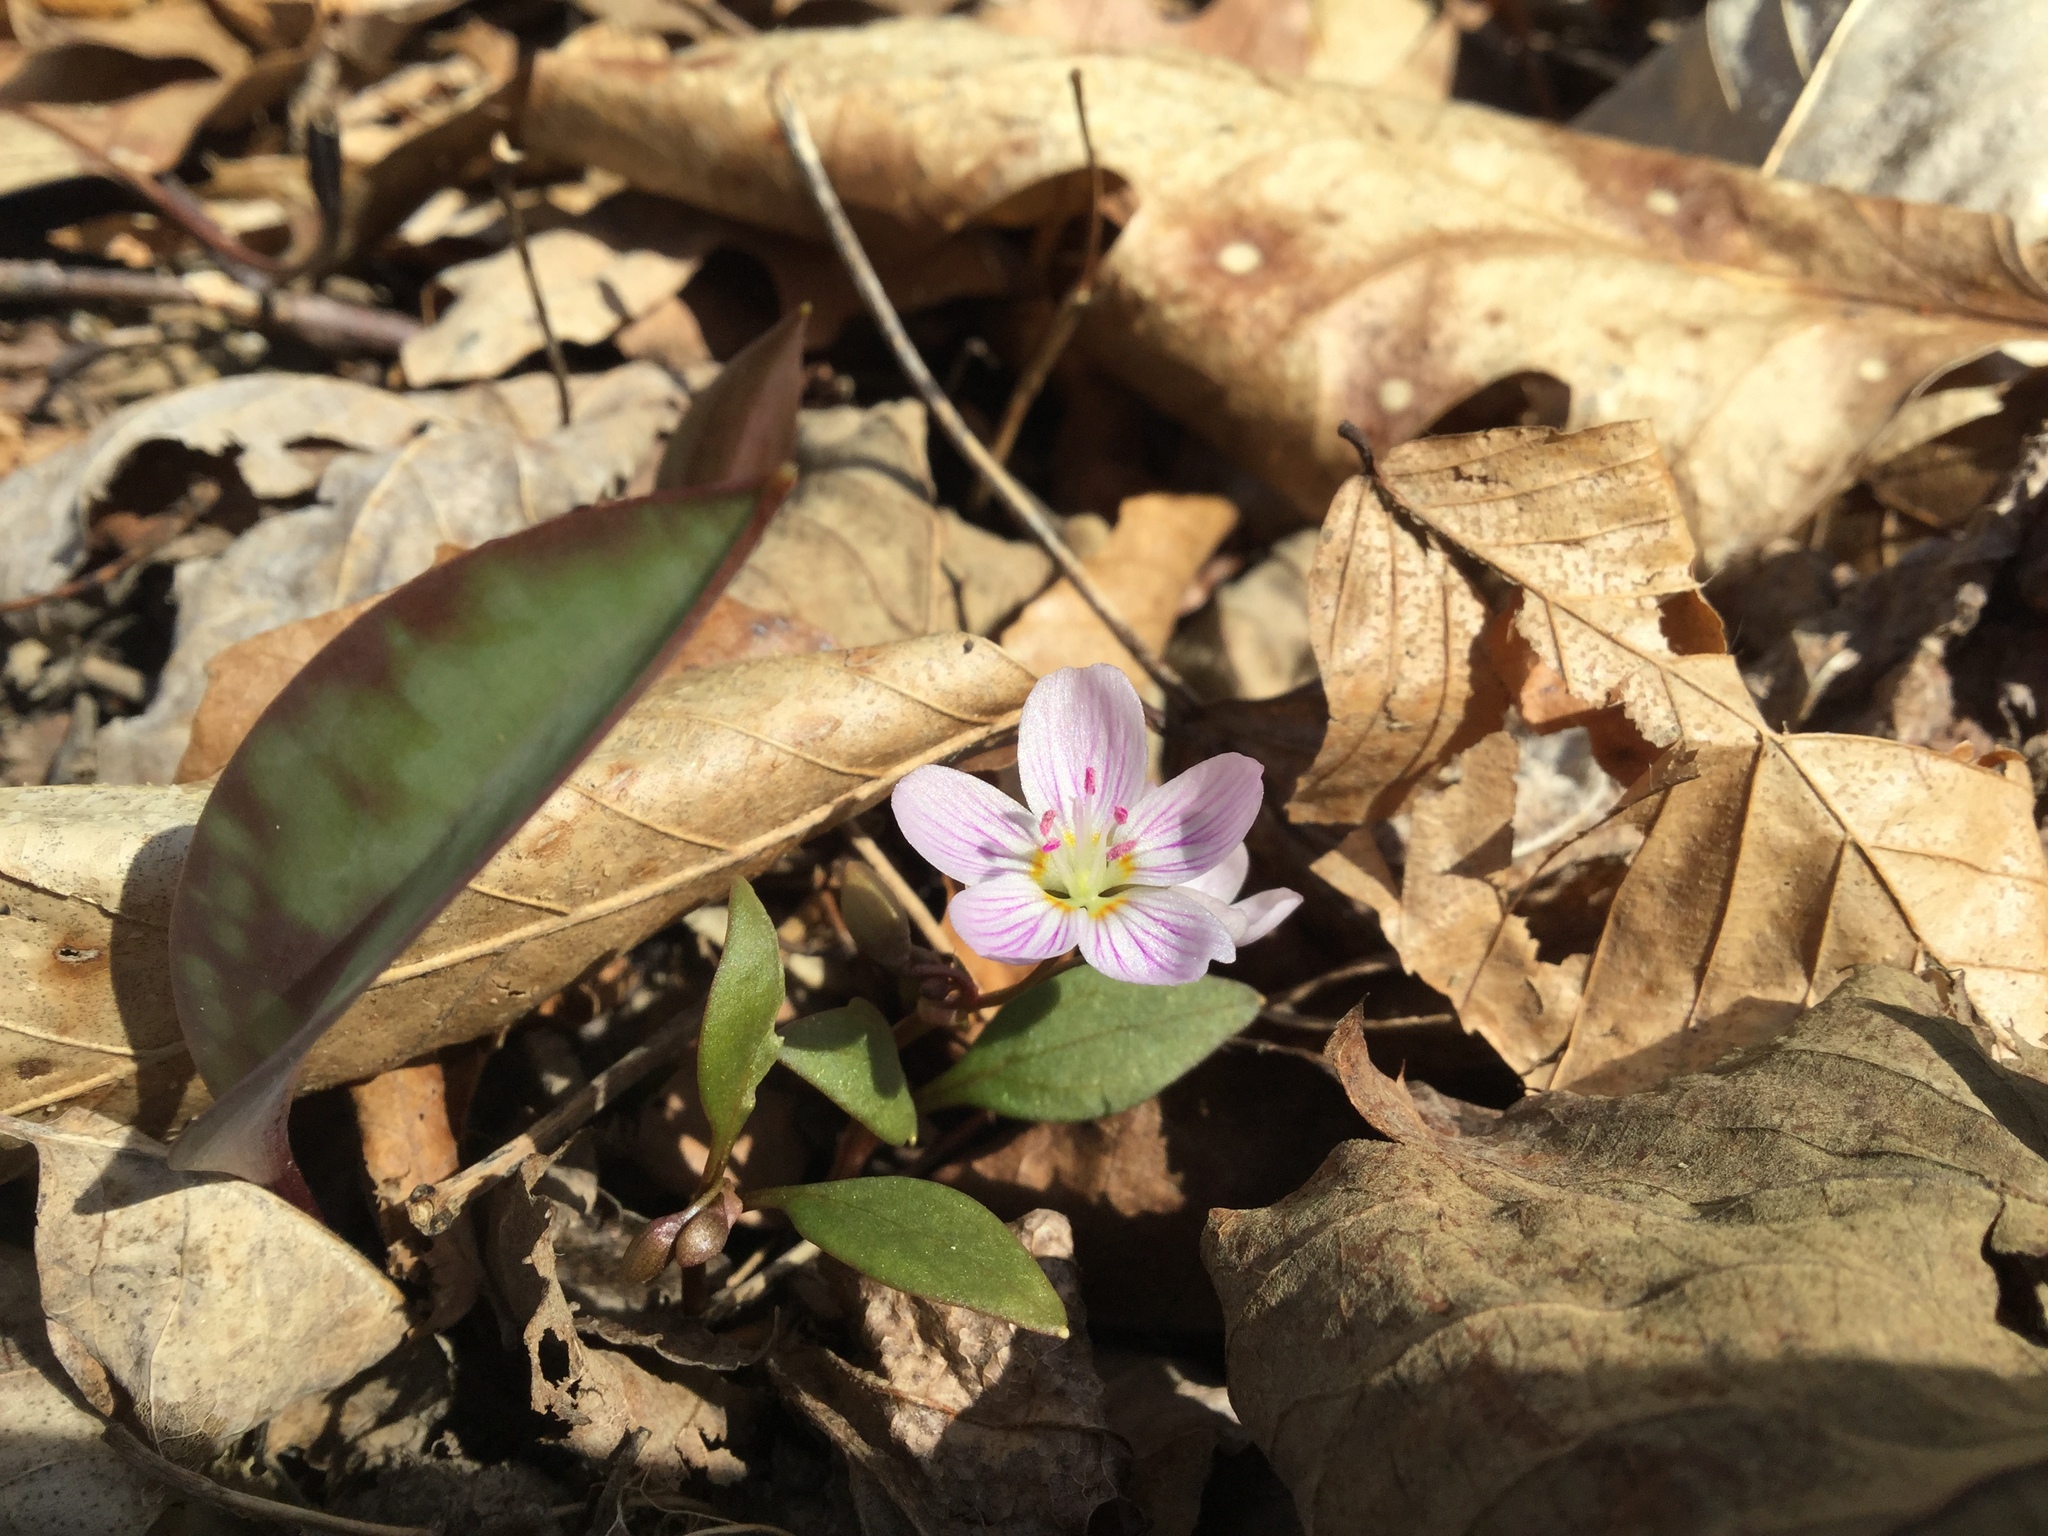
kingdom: Plantae
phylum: Tracheophyta
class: Magnoliopsida
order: Caryophyllales
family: Montiaceae
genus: Claytonia
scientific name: Claytonia caroliniana
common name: Carolina spring beauty
